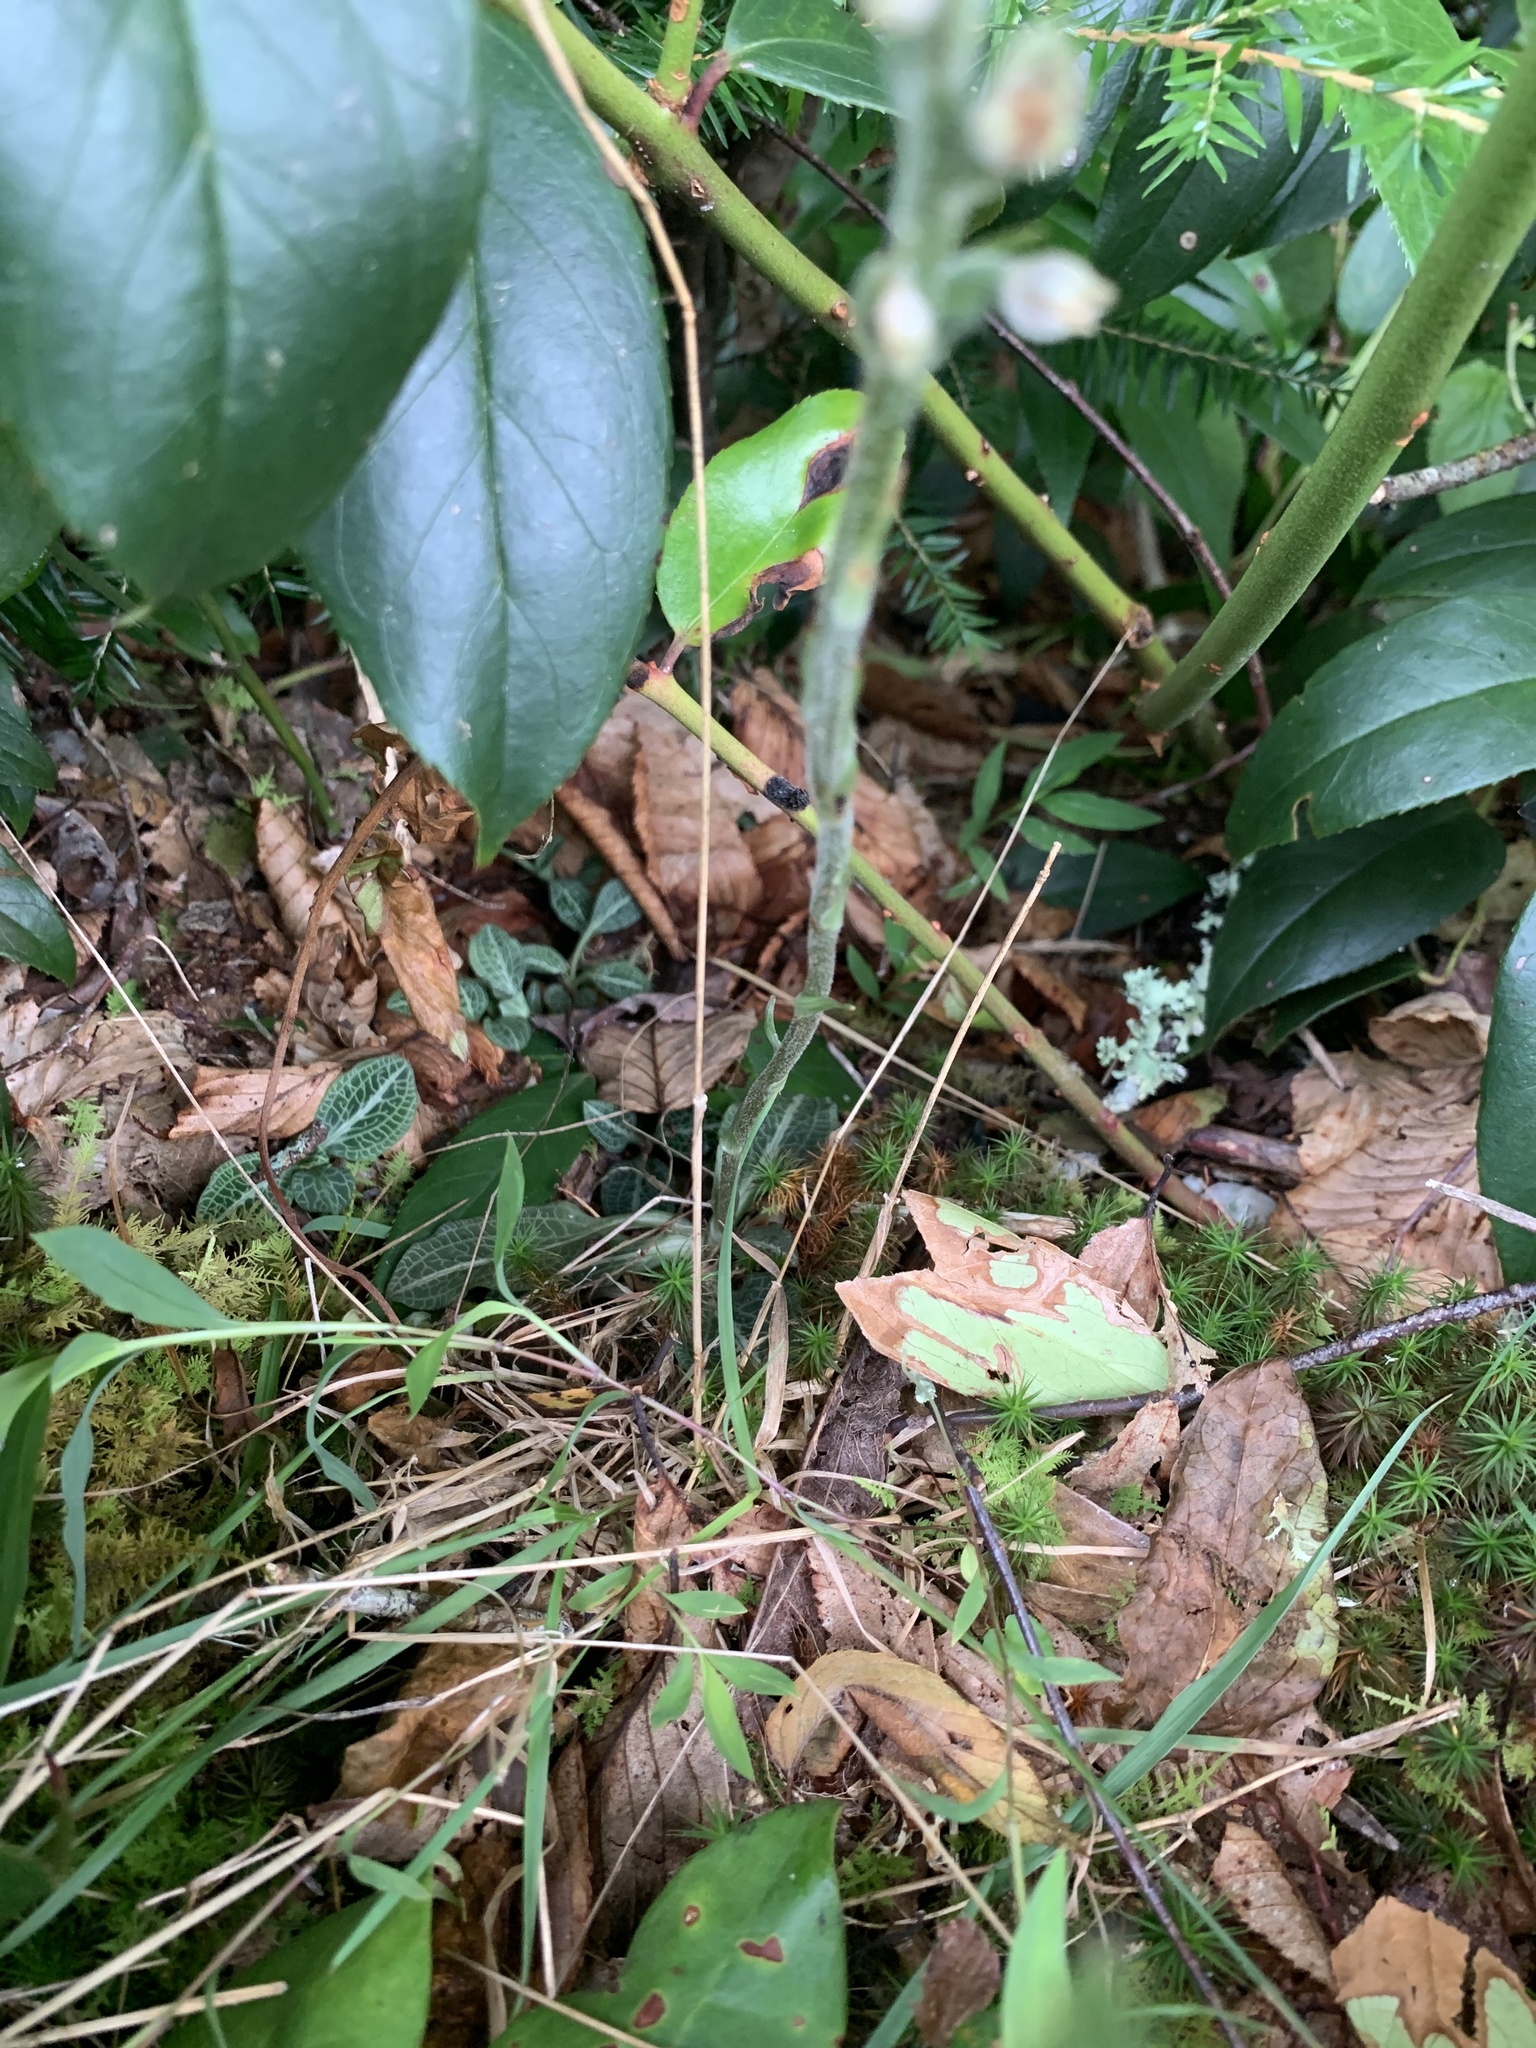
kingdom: Plantae
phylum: Tracheophyta
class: Liliopsida
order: Asparagales
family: Orchidaceae
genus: Goodyera
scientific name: Goodyera pubescens
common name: Downy rattlesnake-plantain
